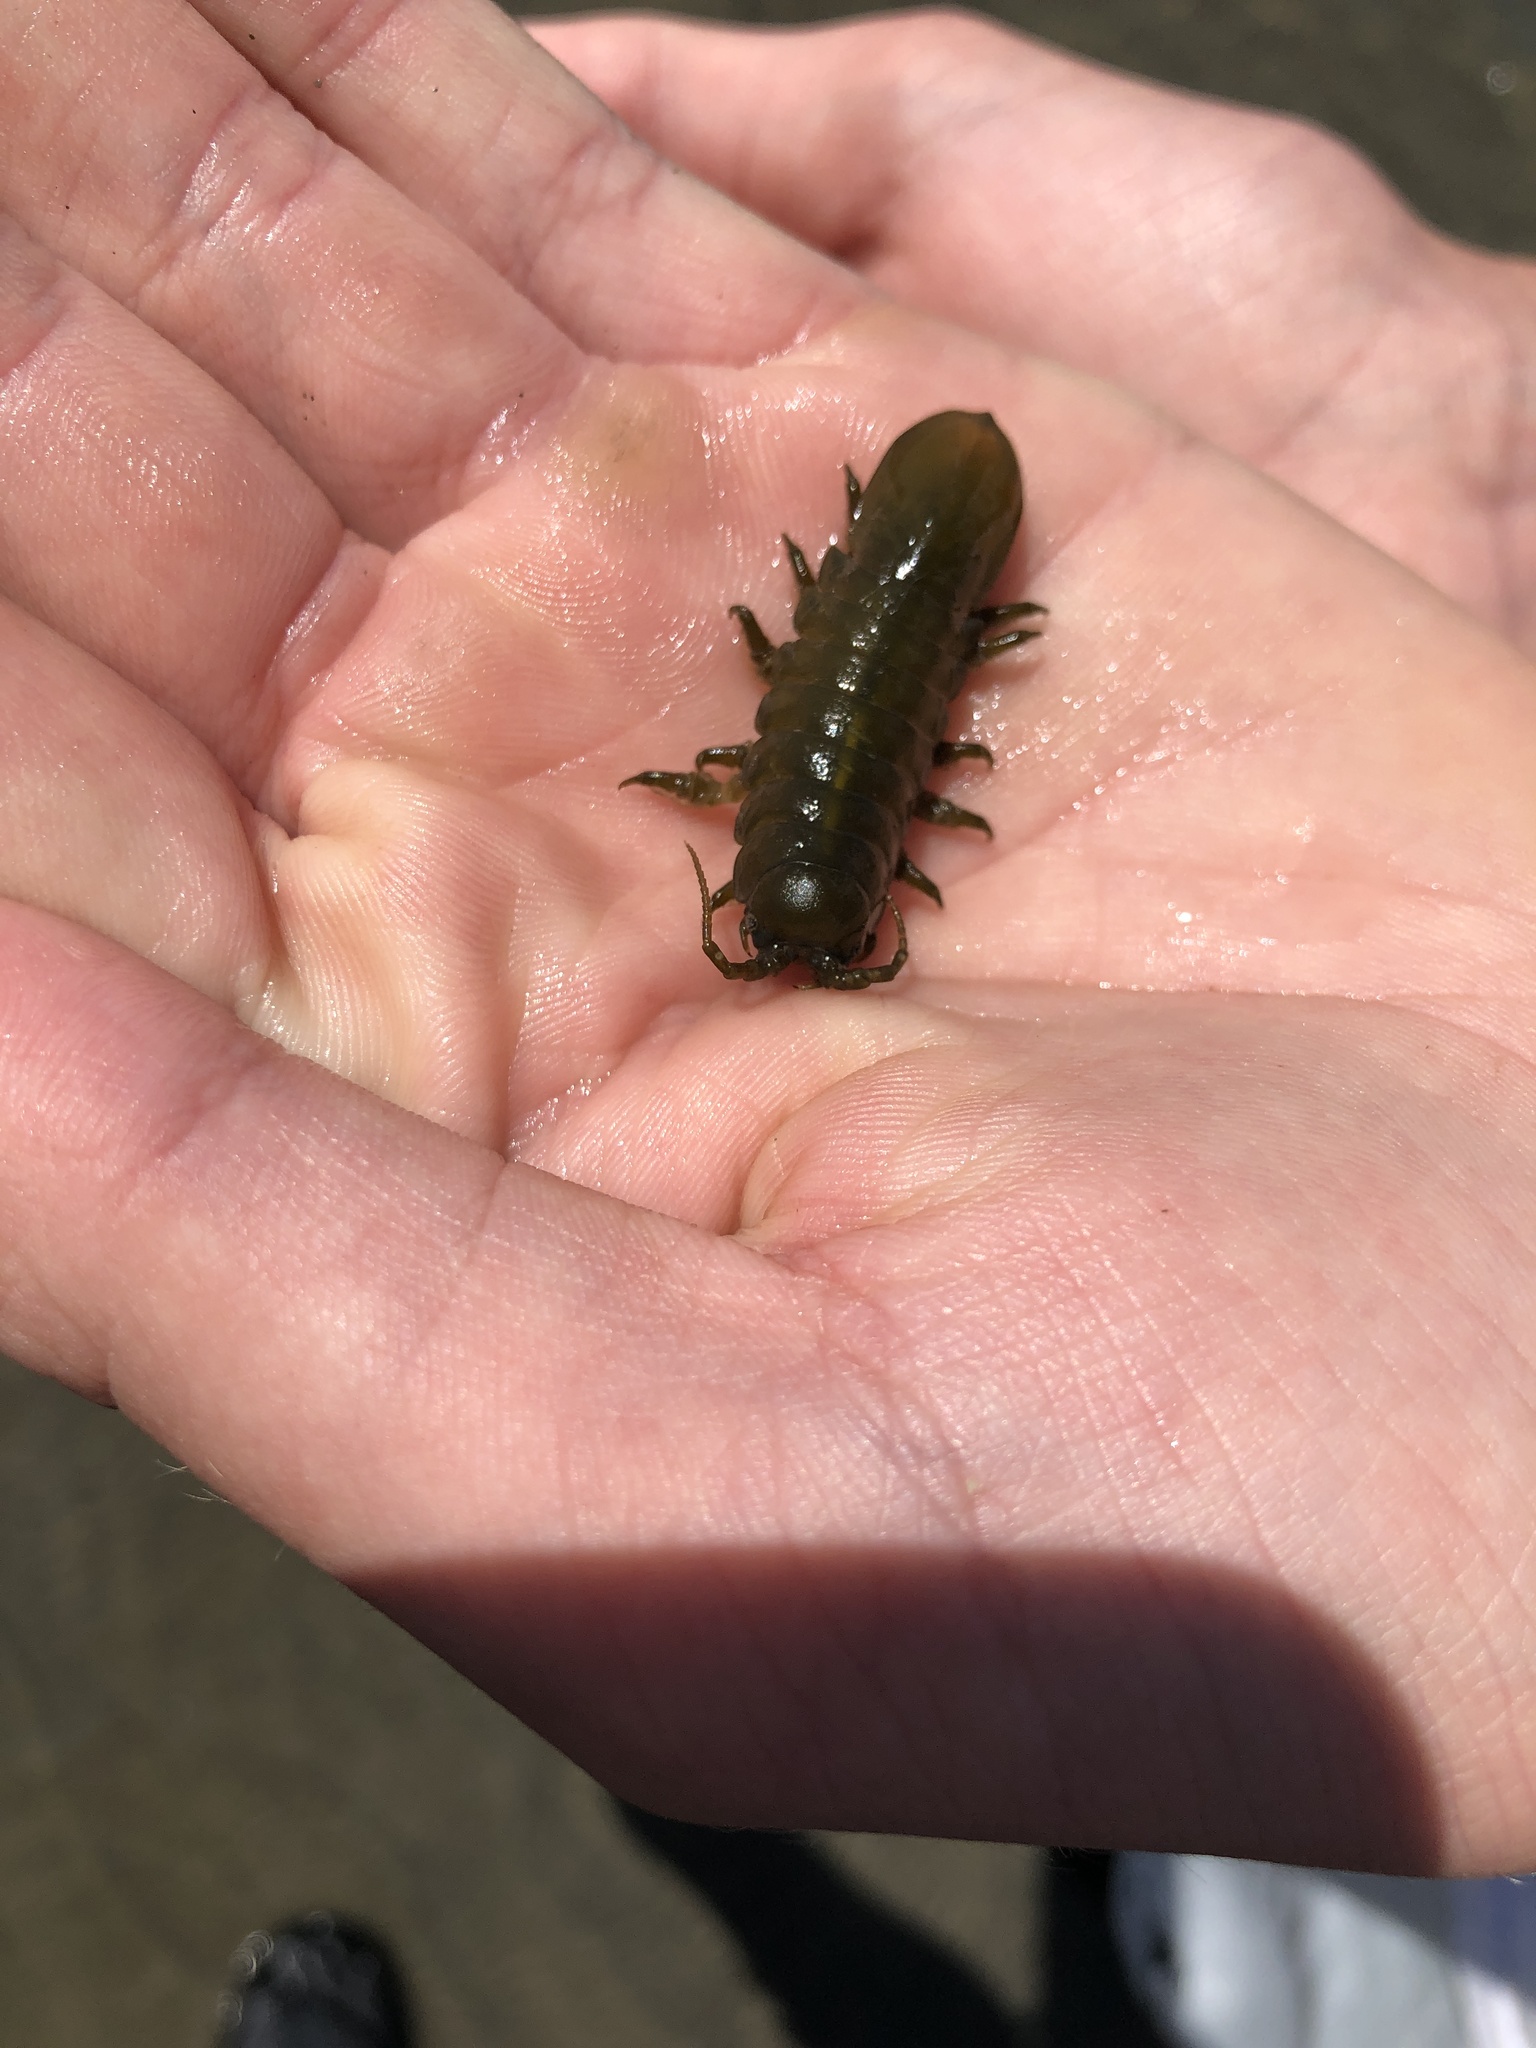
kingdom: Animalia
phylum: Arthropoda
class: Malacostraca
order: Isopoda
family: Idoteidae
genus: Pentidotea
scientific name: Pentidotea wosnesenskii
